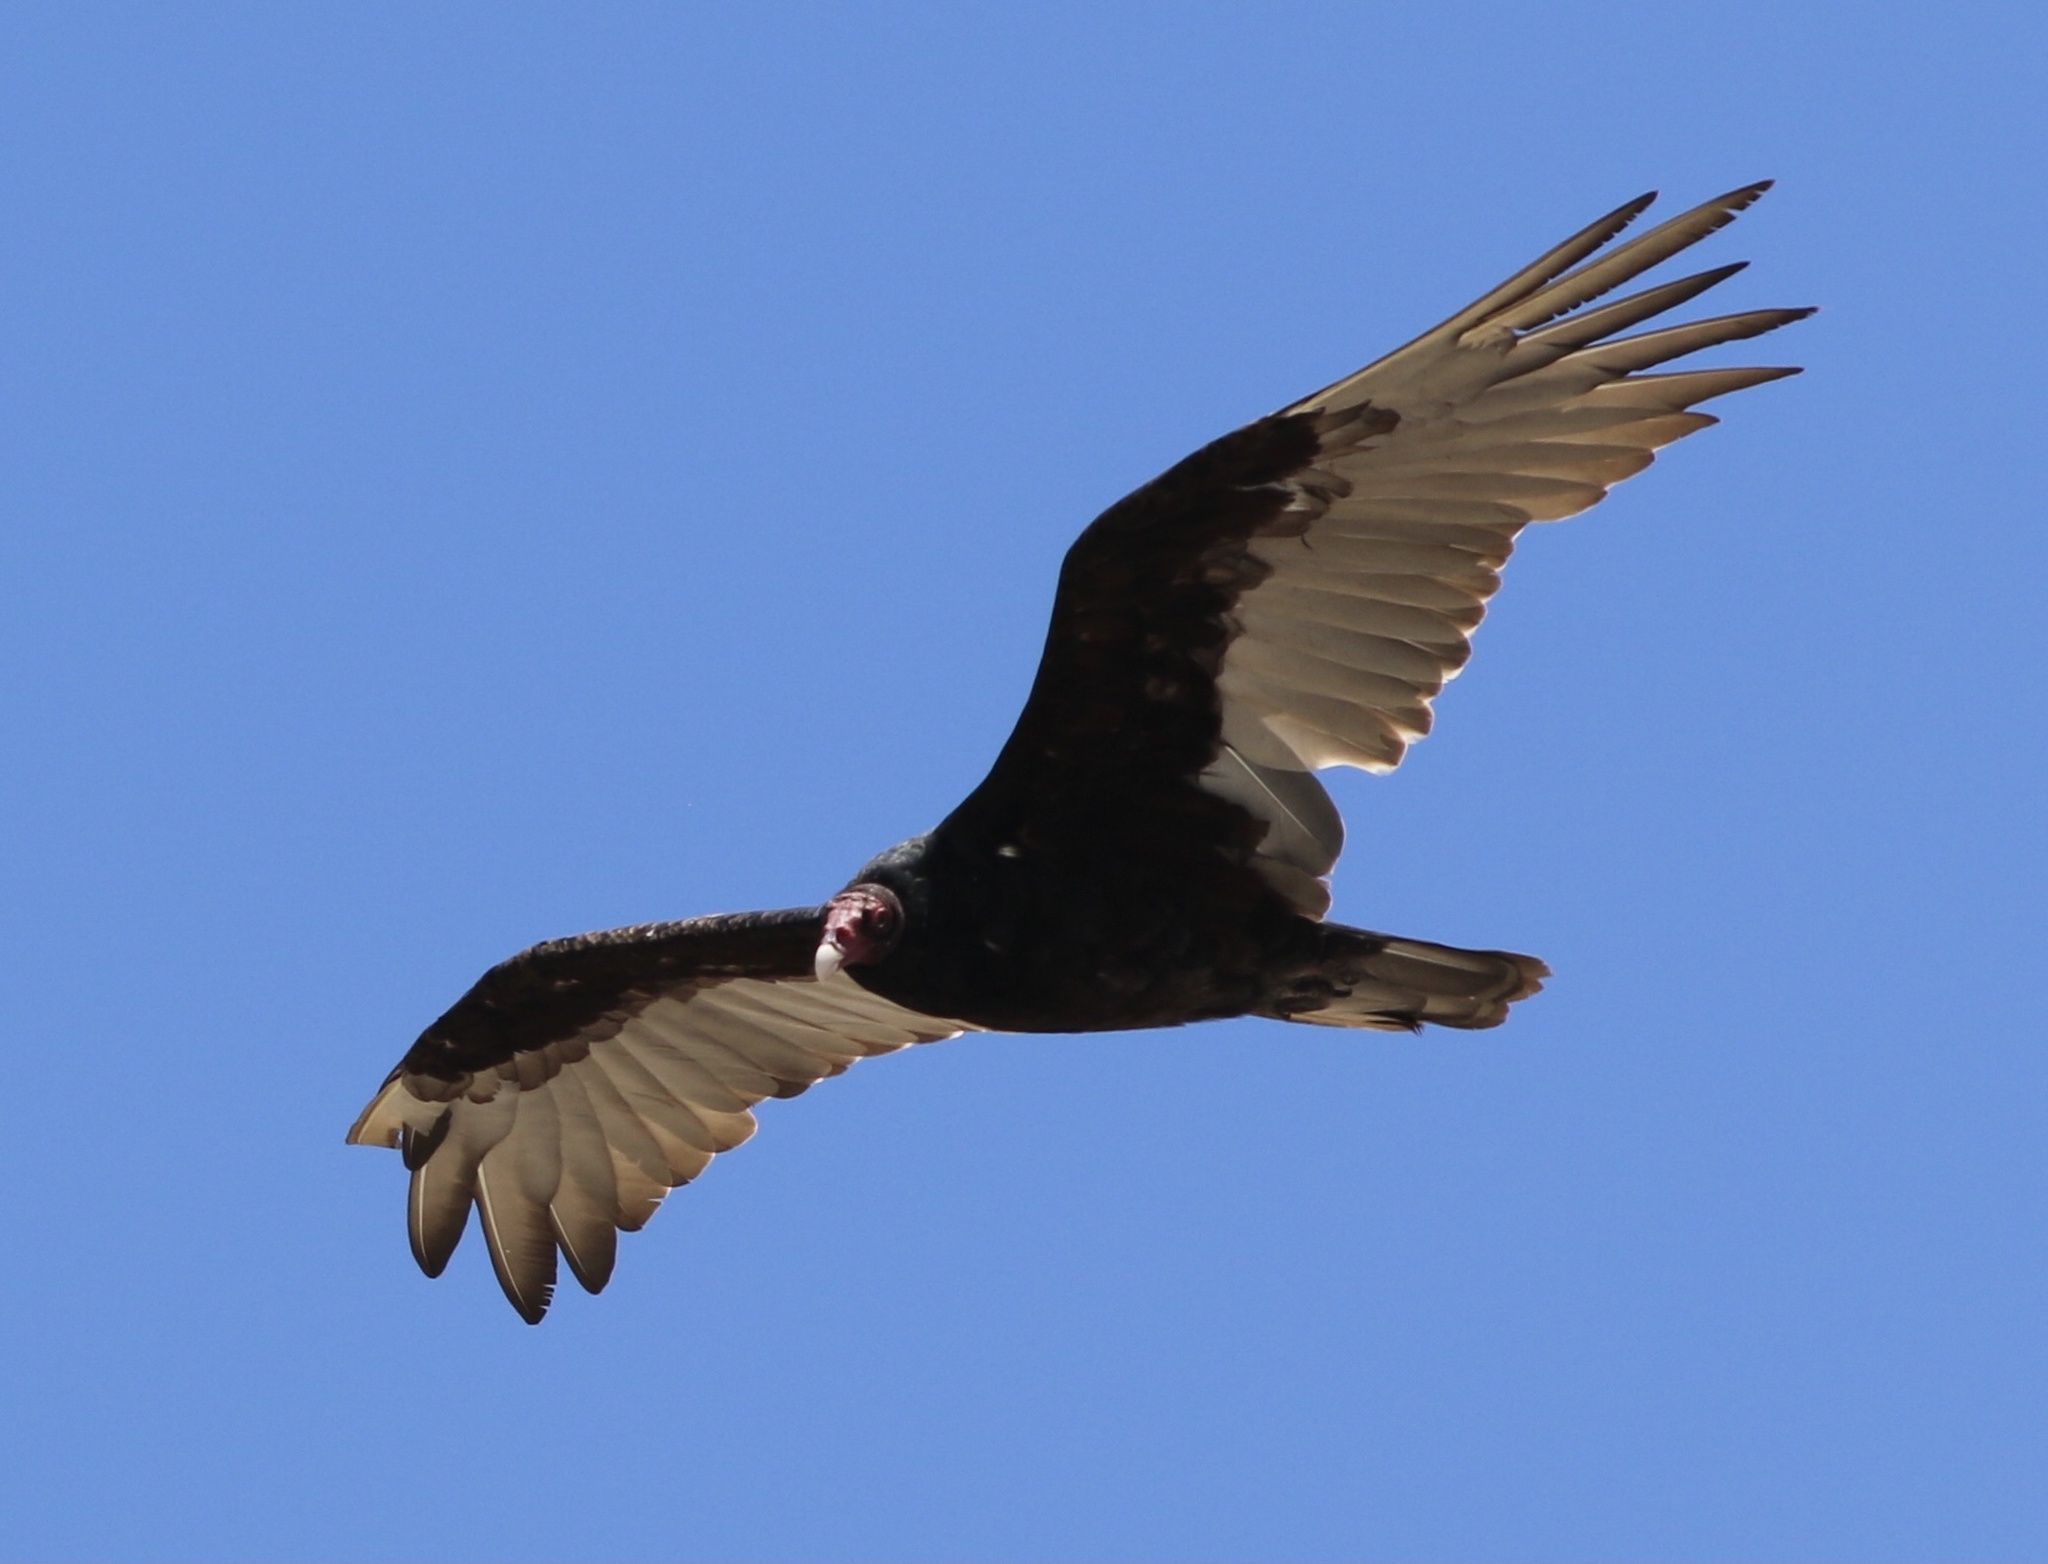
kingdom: Animalia
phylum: Chordata
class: Aves
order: Accipitriformes
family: Cathartidae
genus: Cathartes
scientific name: Cathartes aura
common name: Turkey vulture
